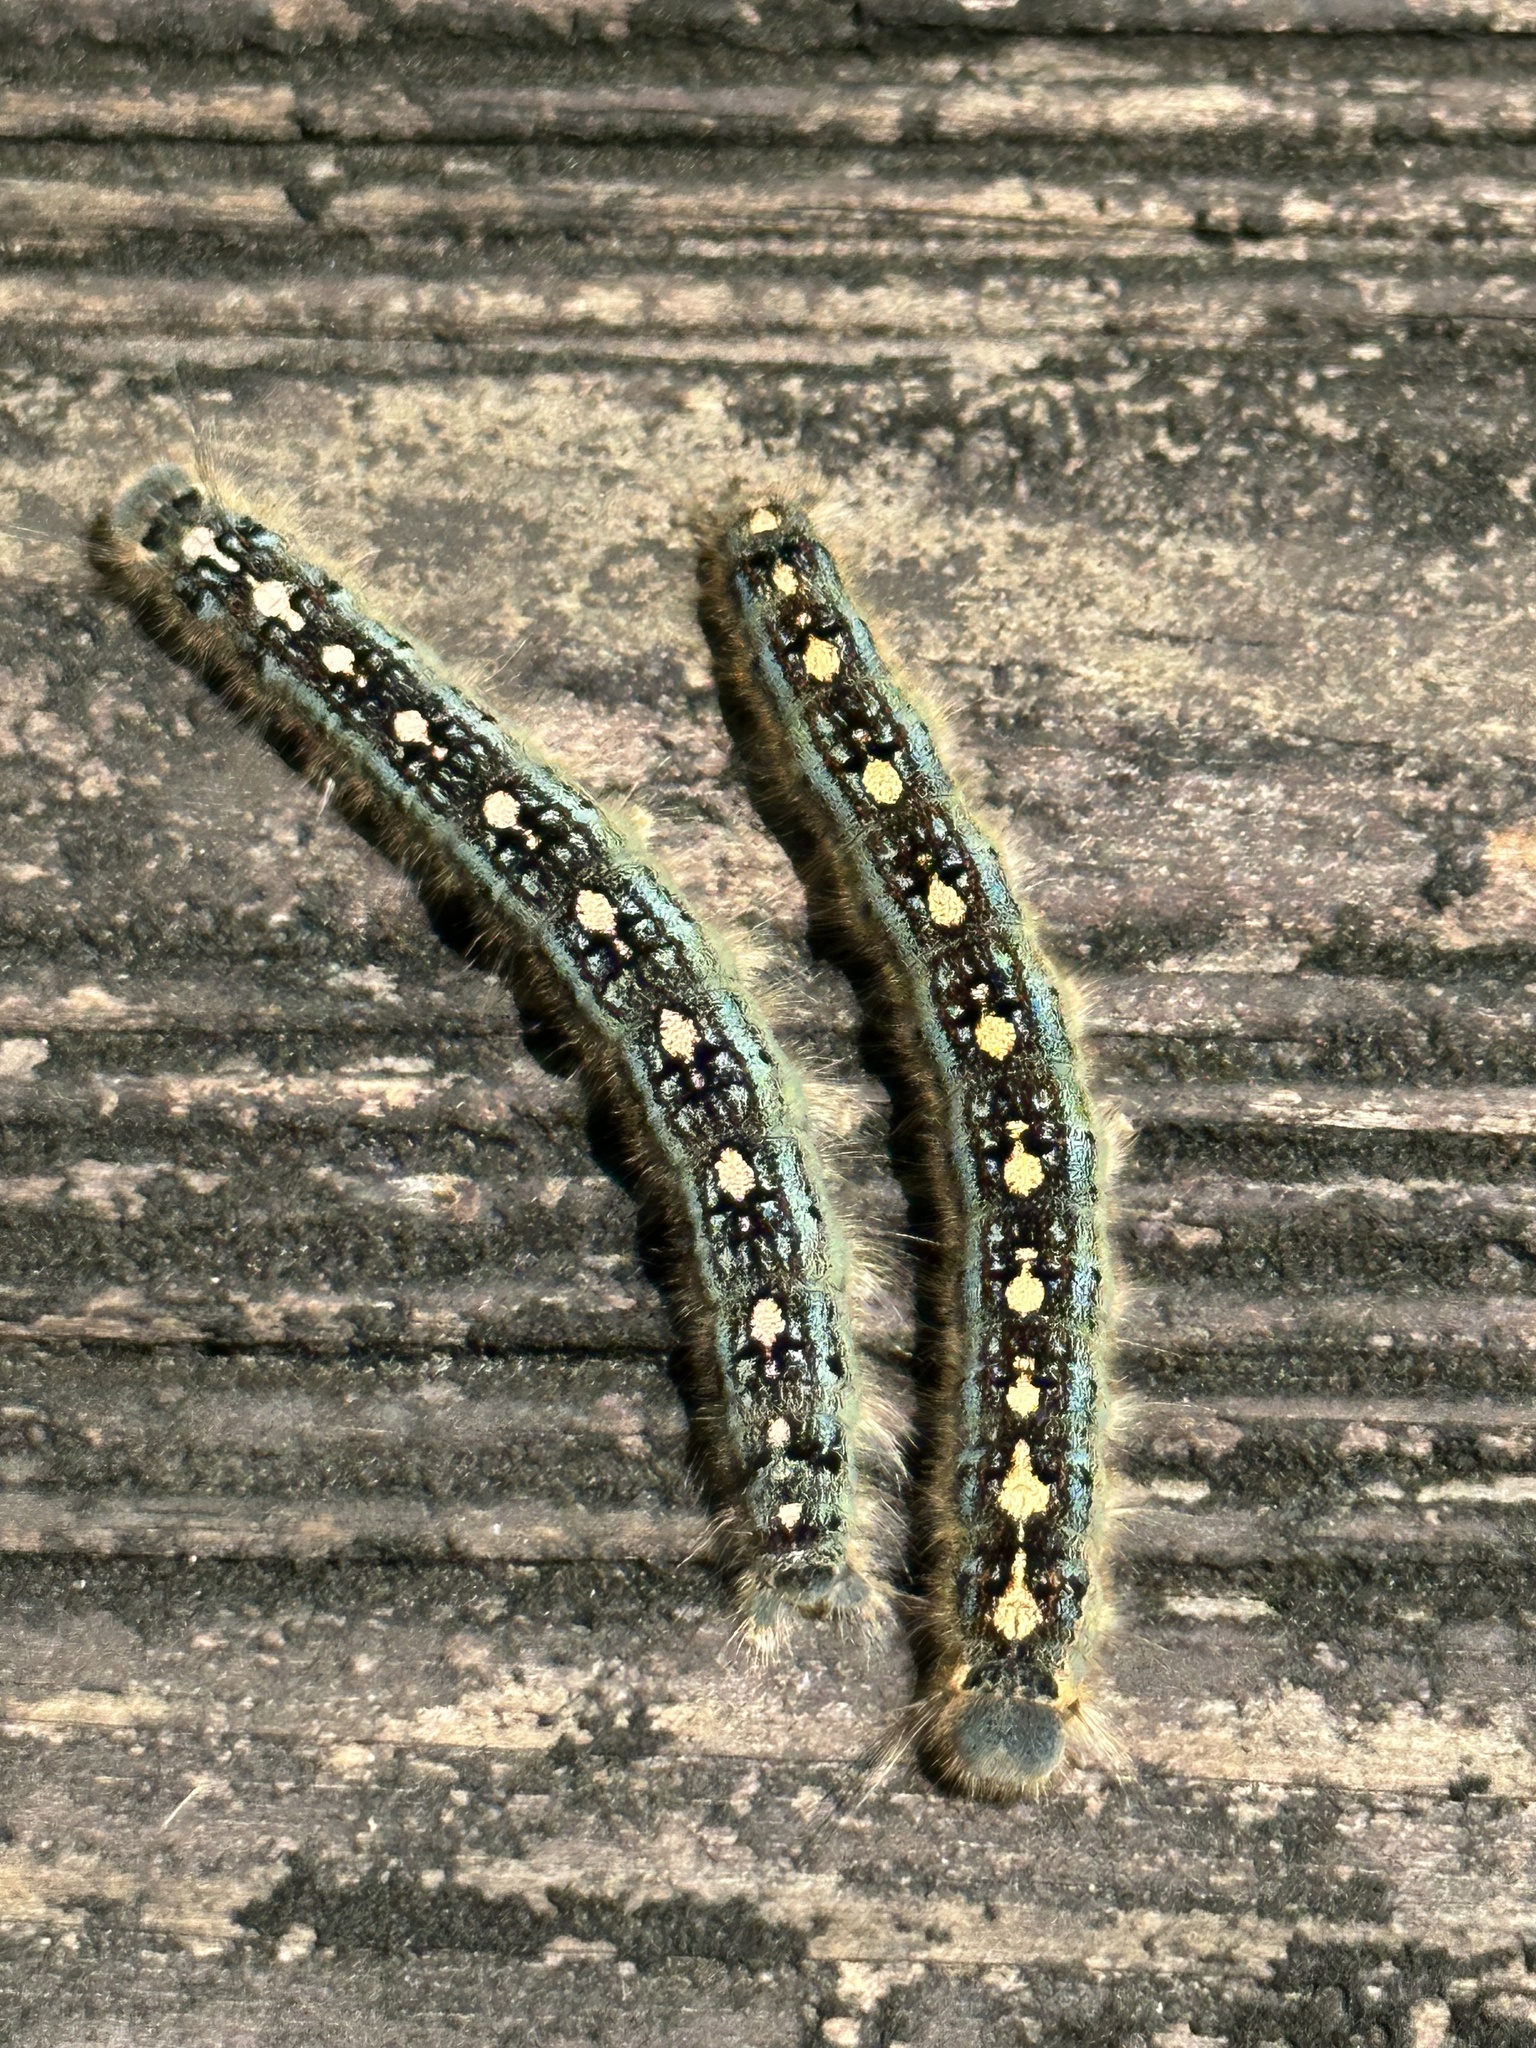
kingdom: Animalia
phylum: Arthropoda
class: Insecta
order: Lepidoptera
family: Lasiocampidae
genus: Malacosoma
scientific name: Malacosoma disstria
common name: Forest tent caterpillar
